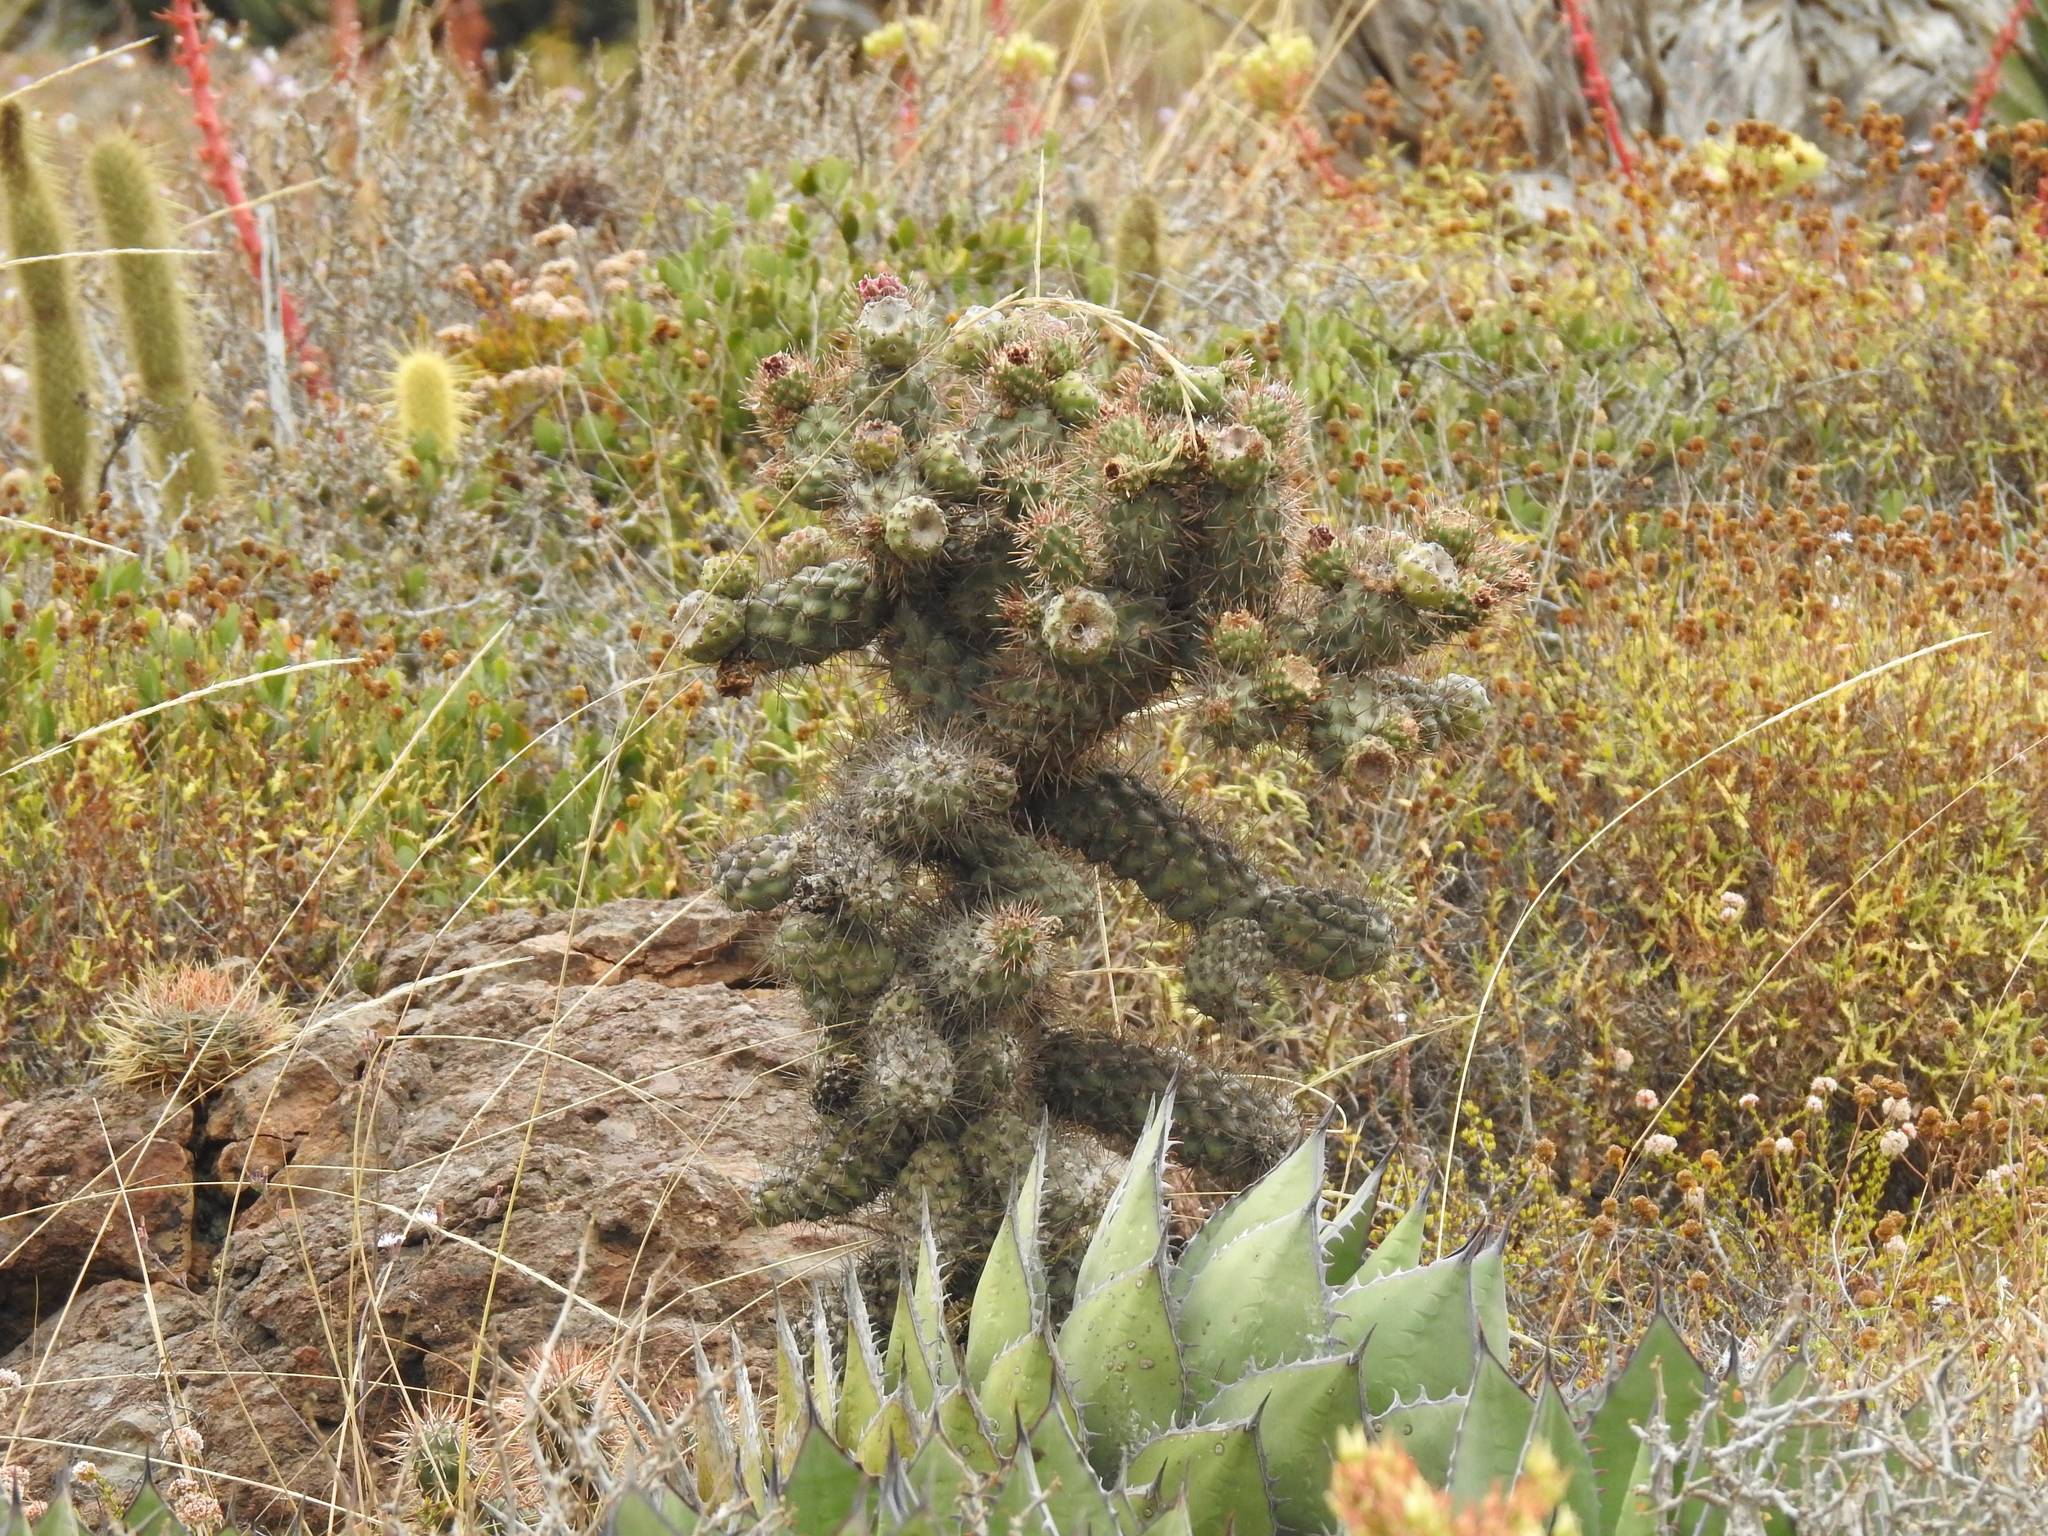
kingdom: Plantae
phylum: Tracheophyta
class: Magnoliopsida
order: Caryophyllales
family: Cactaceae
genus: Cylindropuntia
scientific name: Cylindropuntia prolifera
